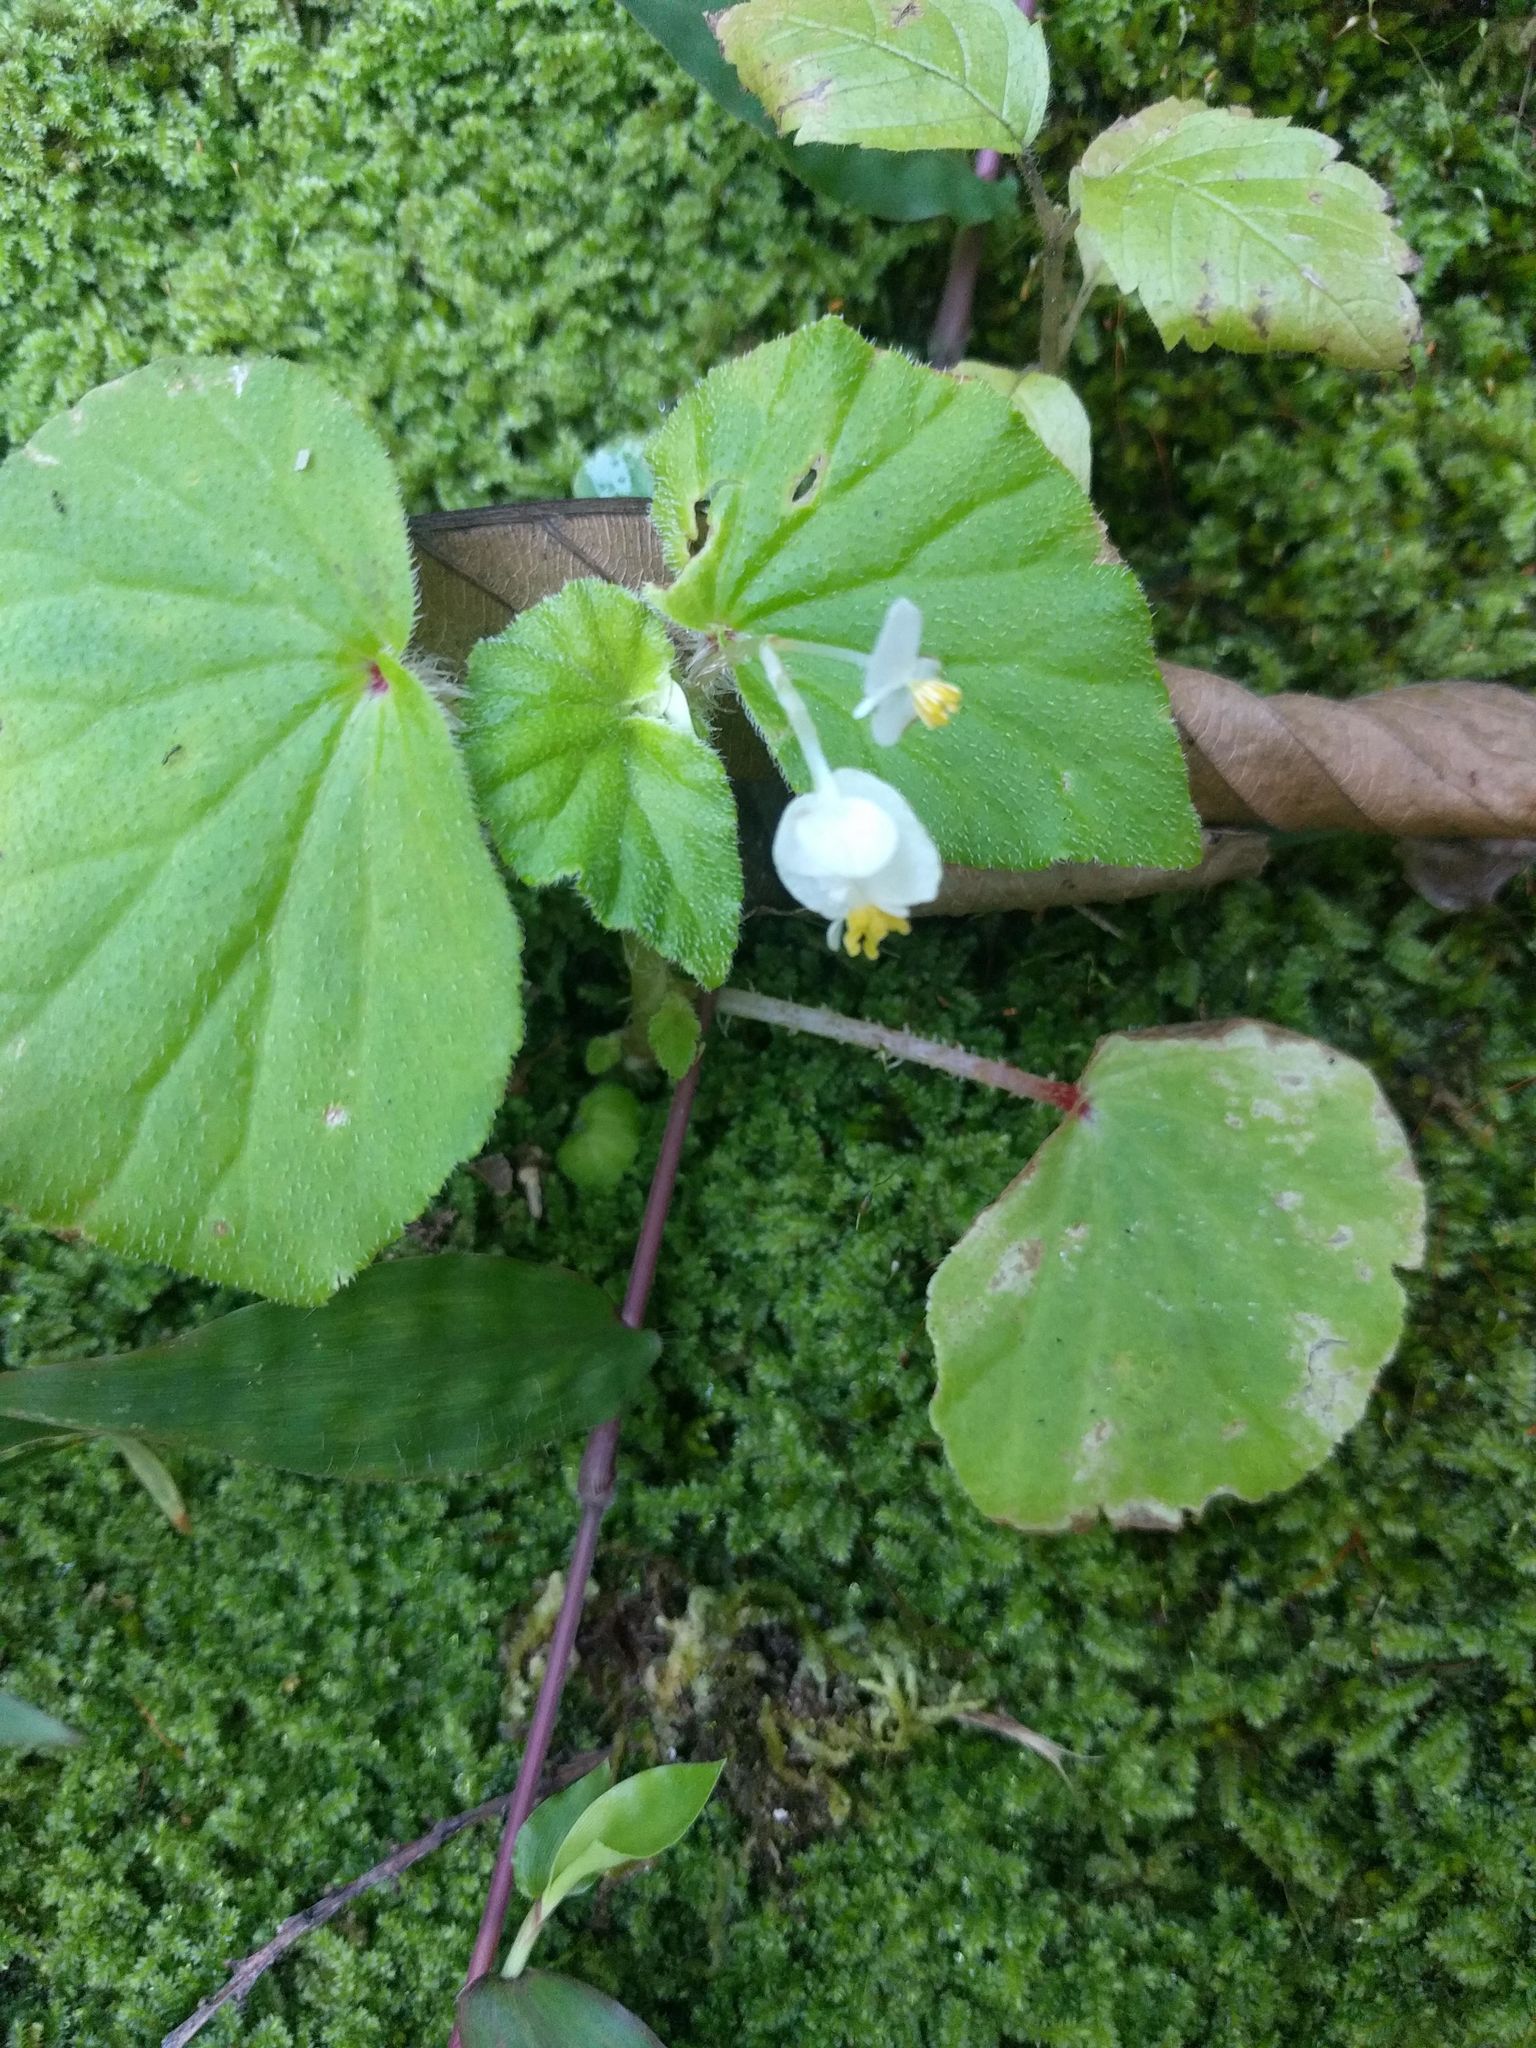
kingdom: Plantae
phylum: Tracheophyta
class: Magnoliopsida
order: Cucurbitales
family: Begoniaceae
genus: Begonia
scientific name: Begonia hirtella
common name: Brazilian begonia
